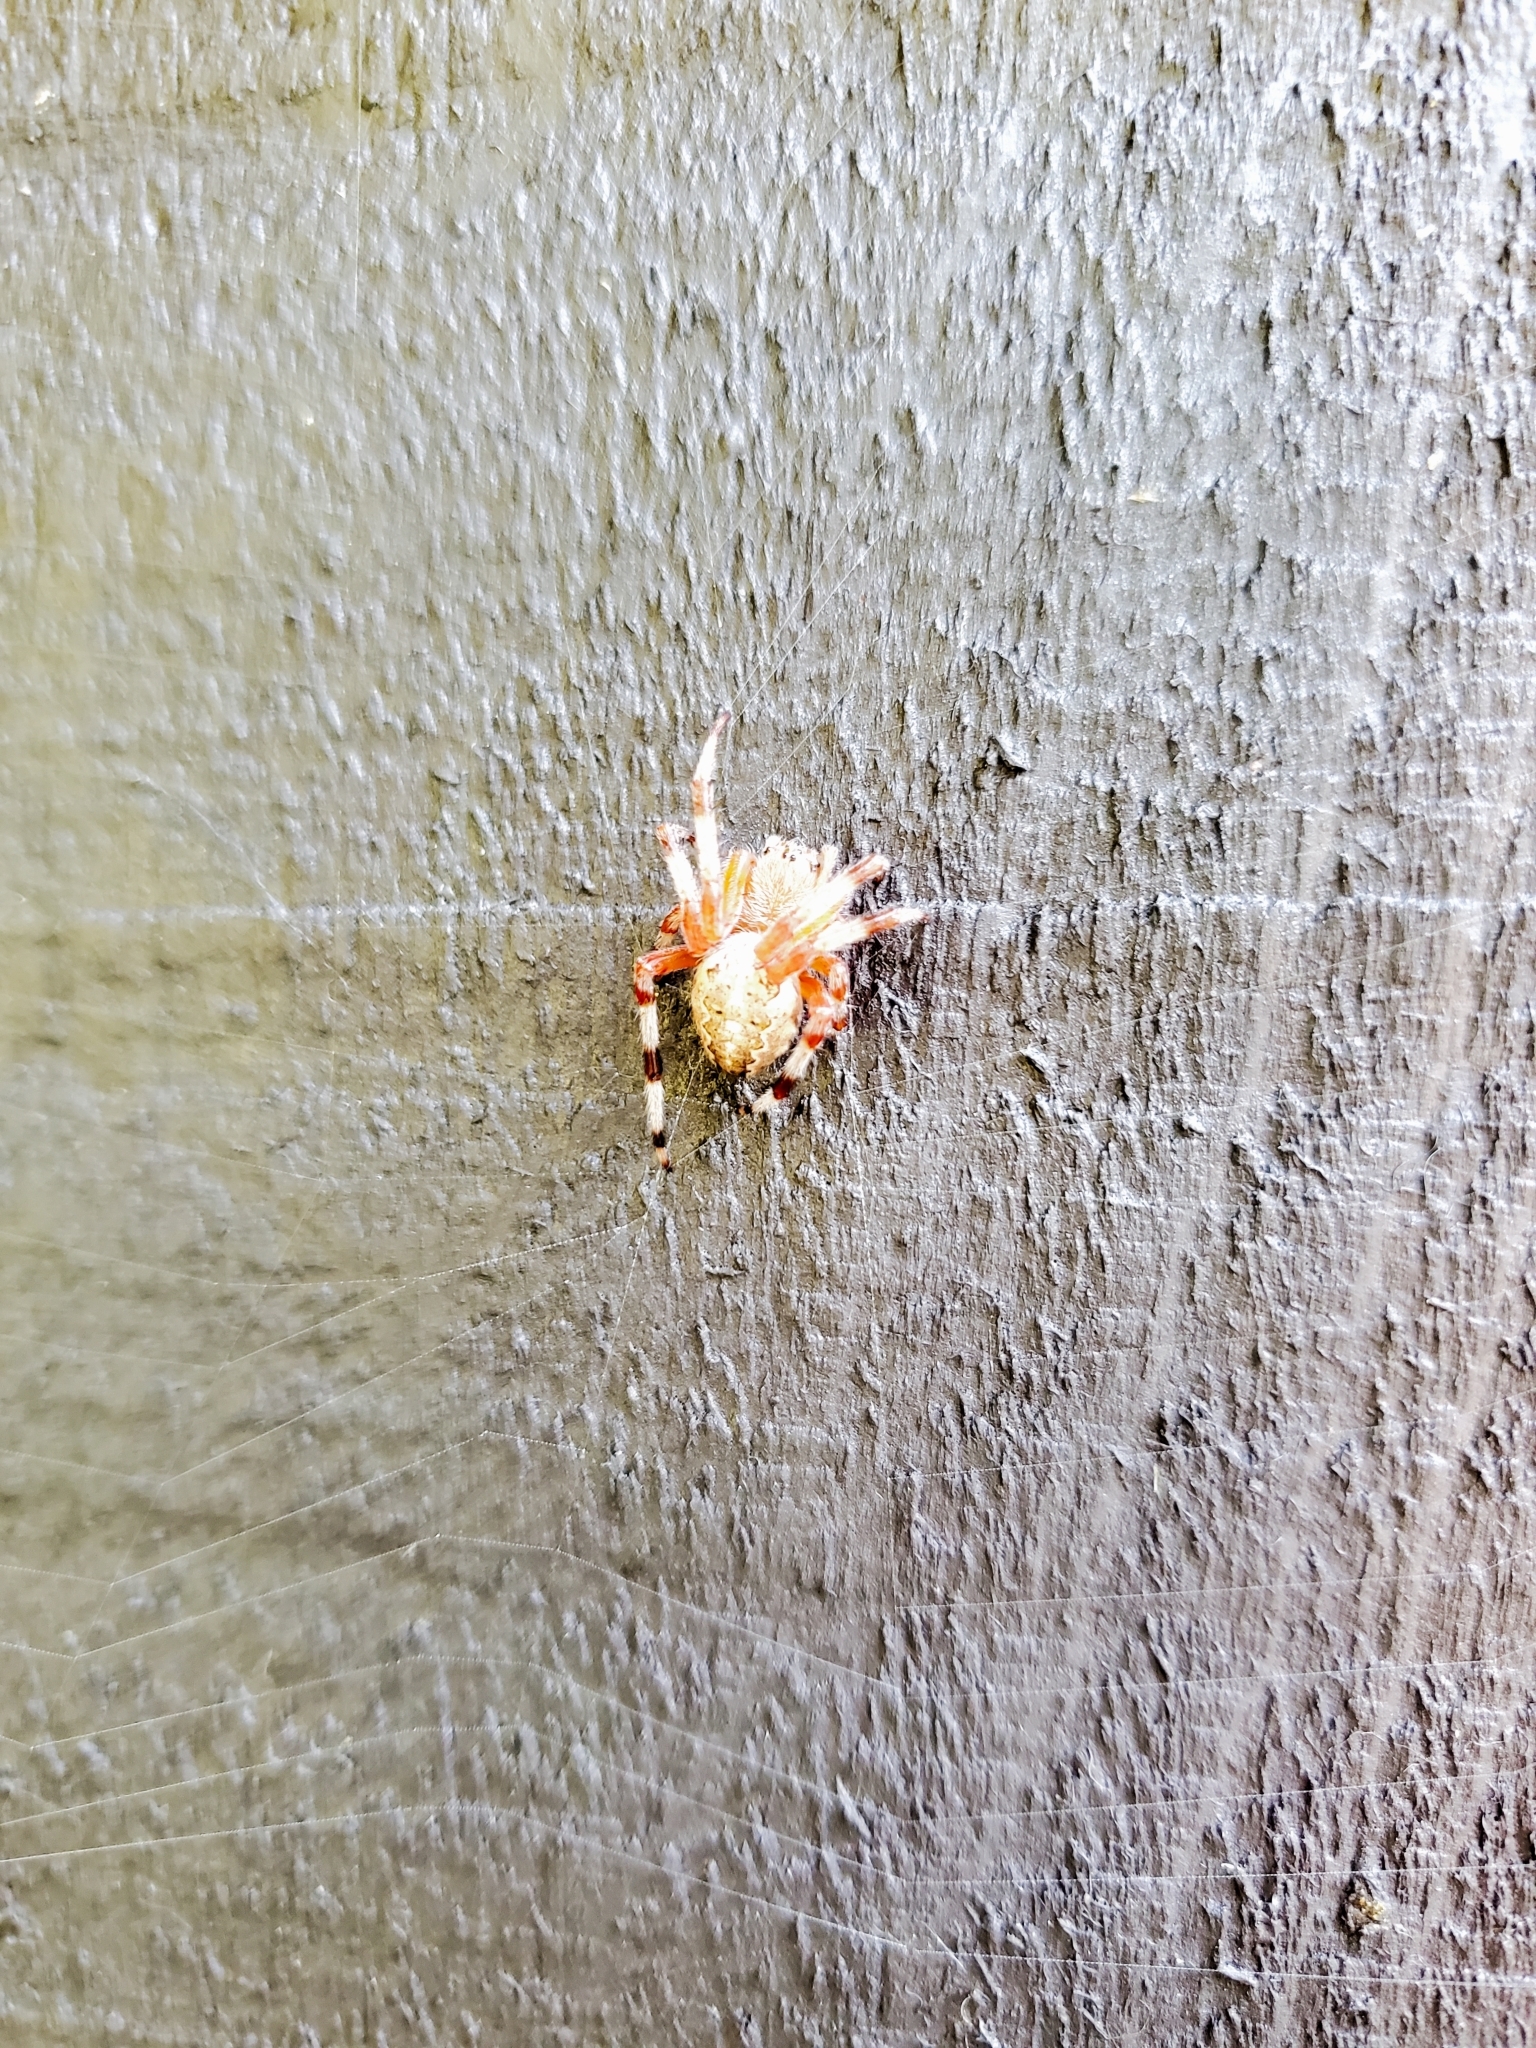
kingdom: Animalia
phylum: Arthropoda
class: Arachnida
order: Araneae
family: Araneidae
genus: Araneus
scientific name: Araneus marmoreus
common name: Marbled orbweaver
